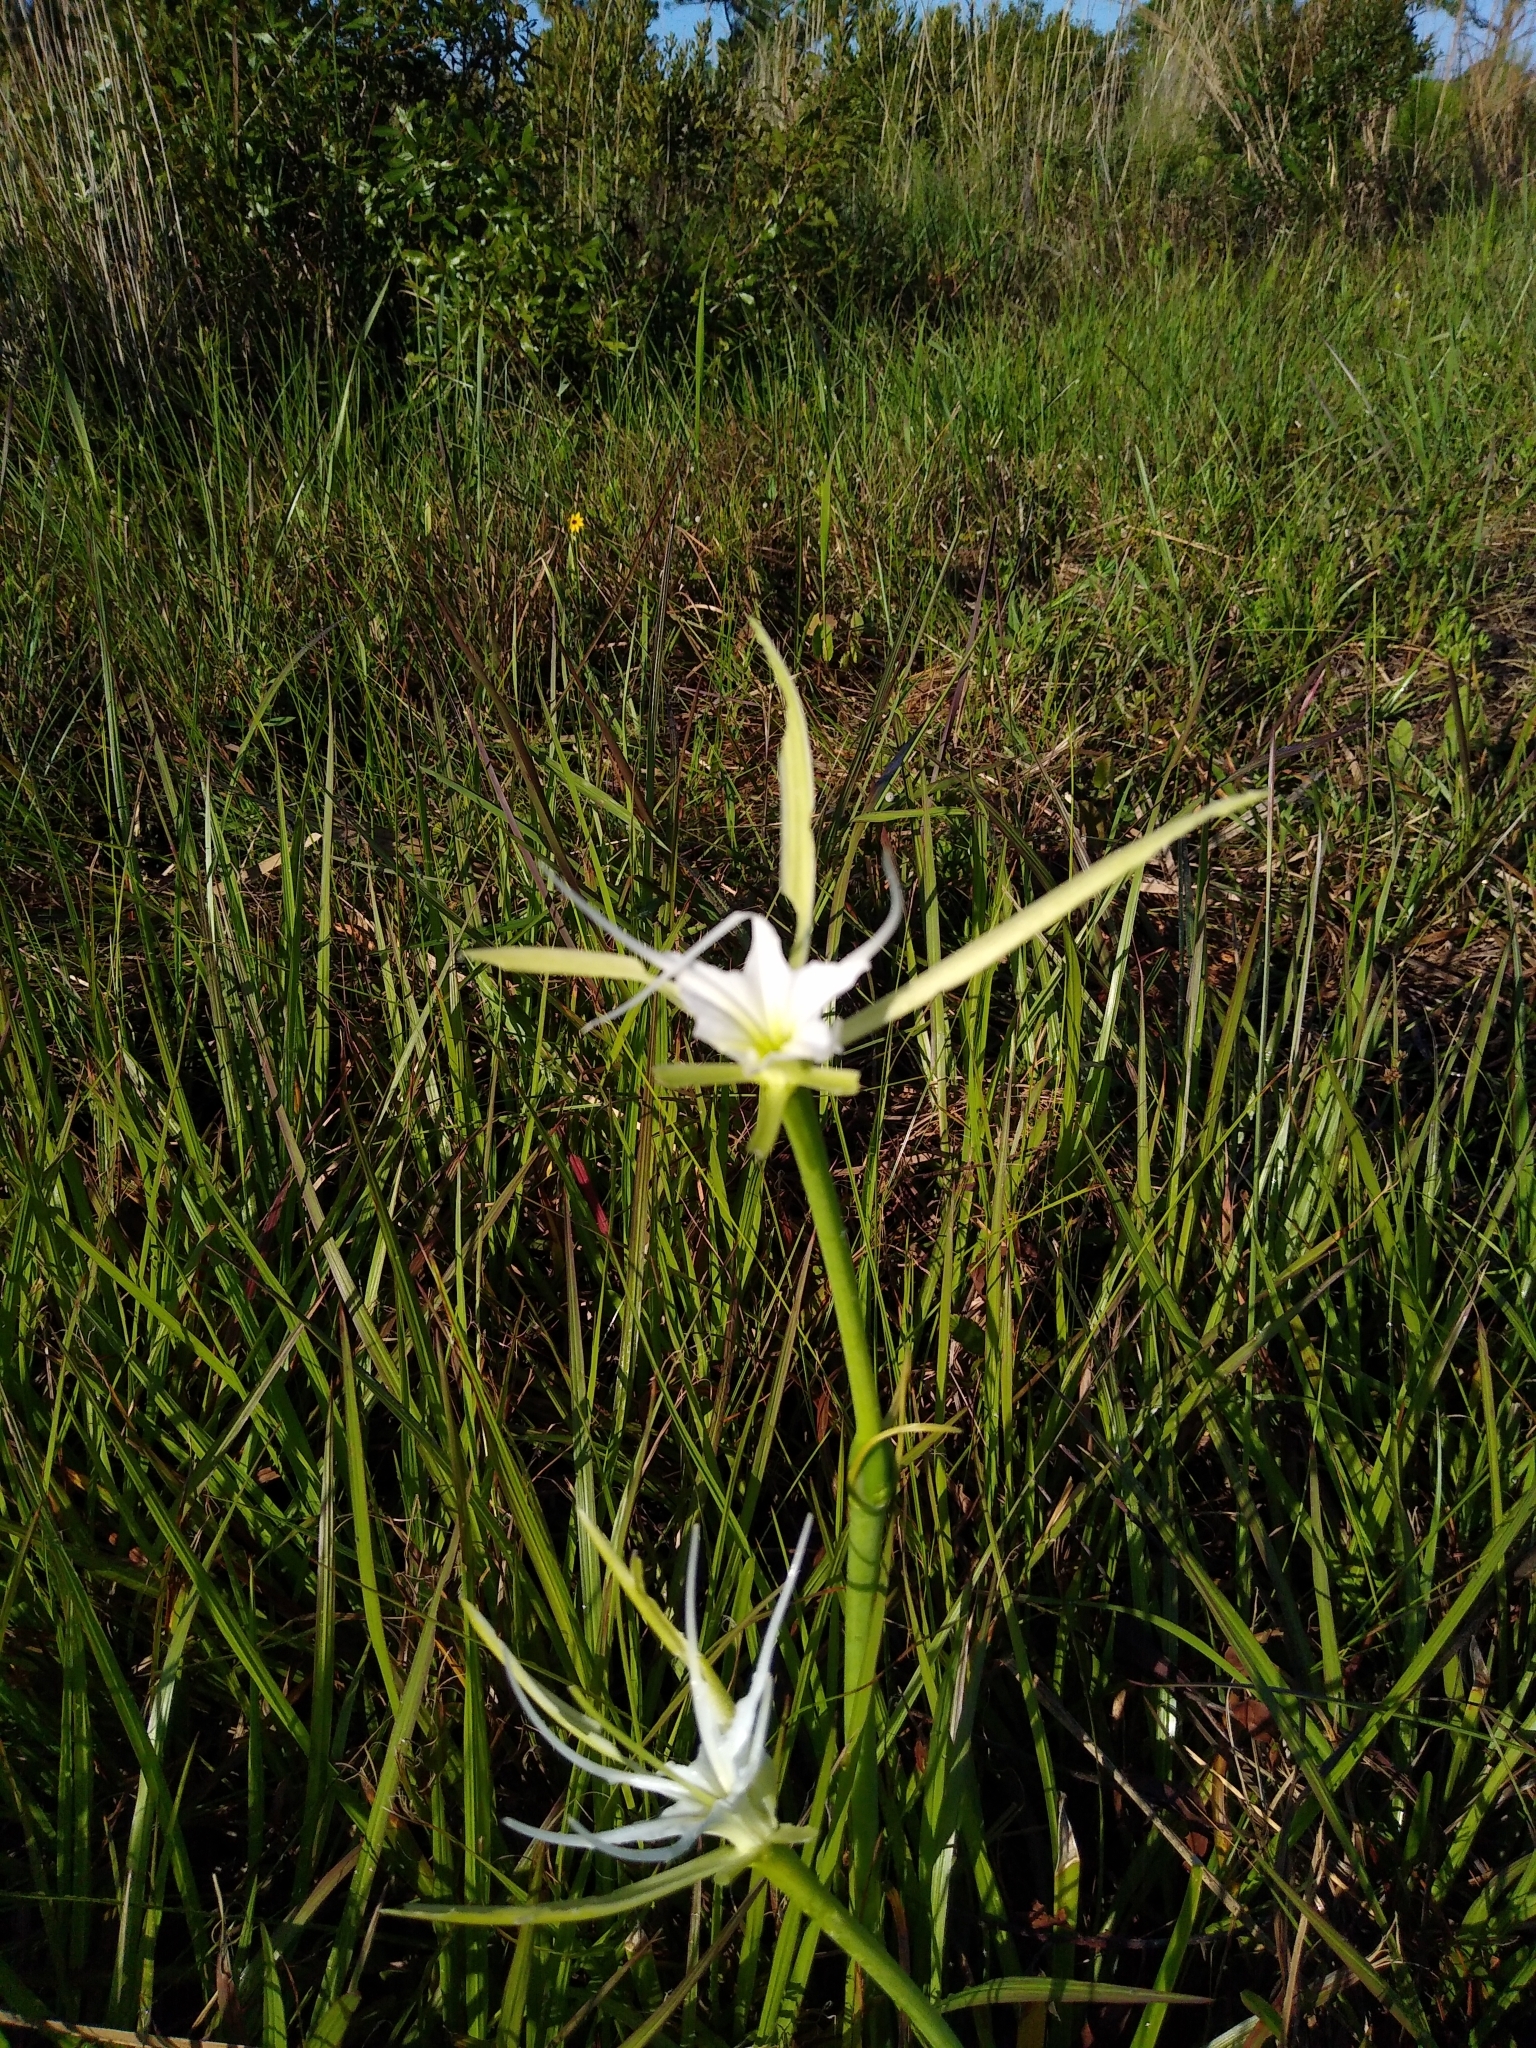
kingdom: Plantae
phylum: Tracheophyta
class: Liliopsida
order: Asparagales
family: Amaryllidaceae
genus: Hymenocallis
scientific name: Hymenocallis palmeri
